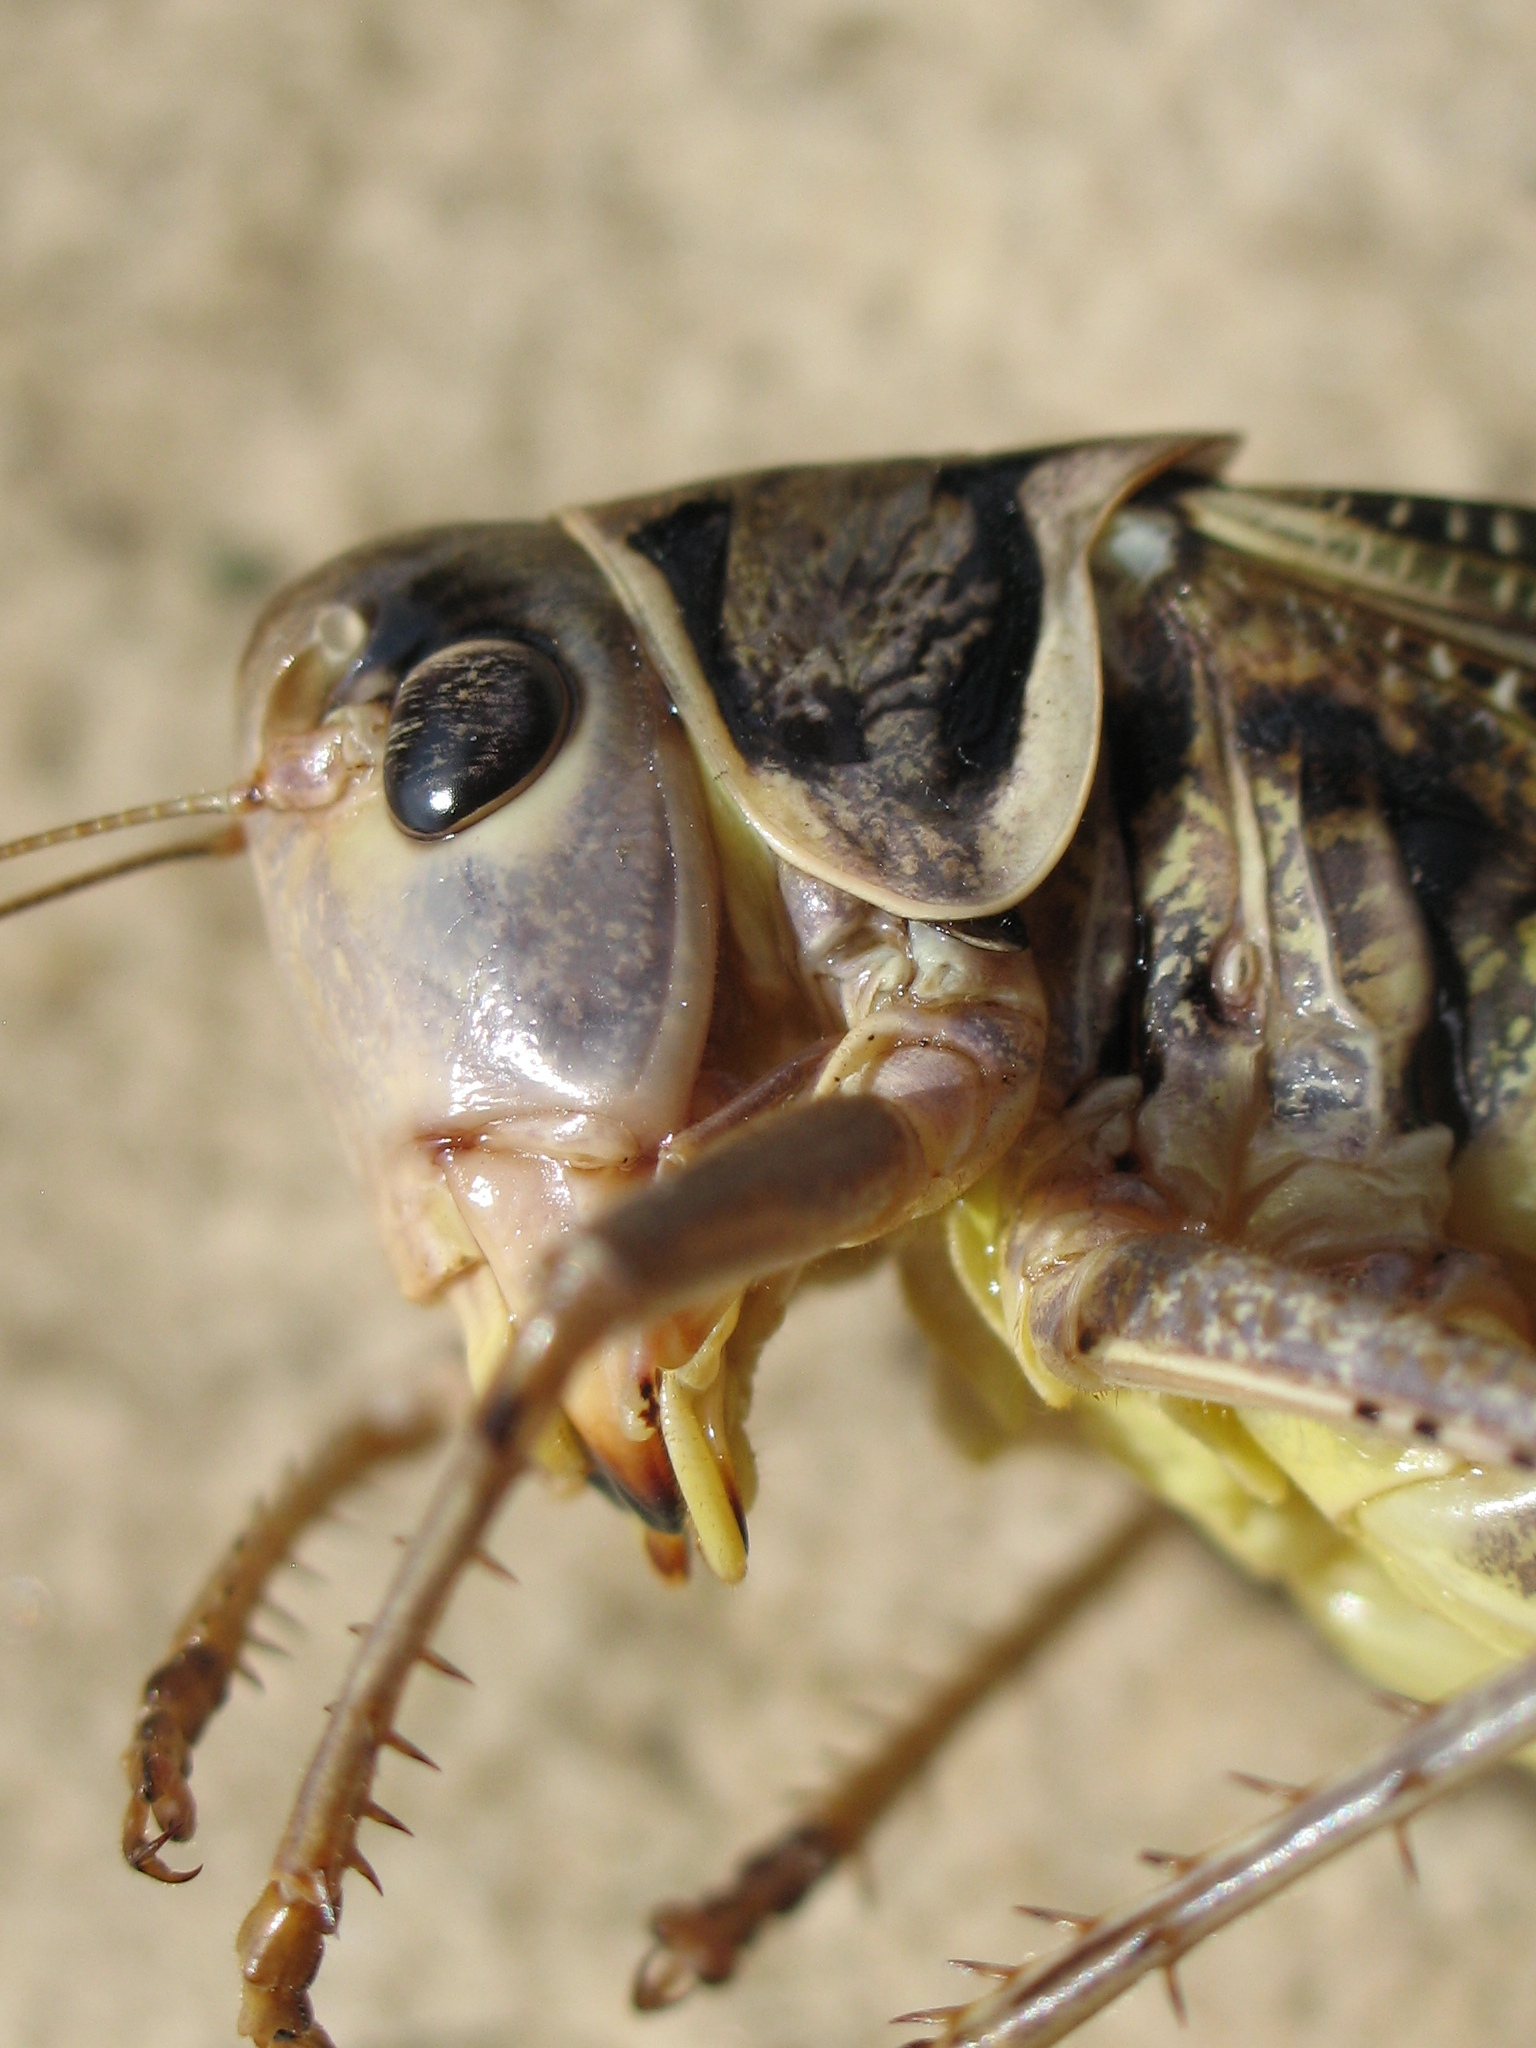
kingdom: Animalia
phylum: Arthropoda
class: Insecta
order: Orthoptera
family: Tettigoniidae
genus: Decticus
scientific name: Decticus albifrons
